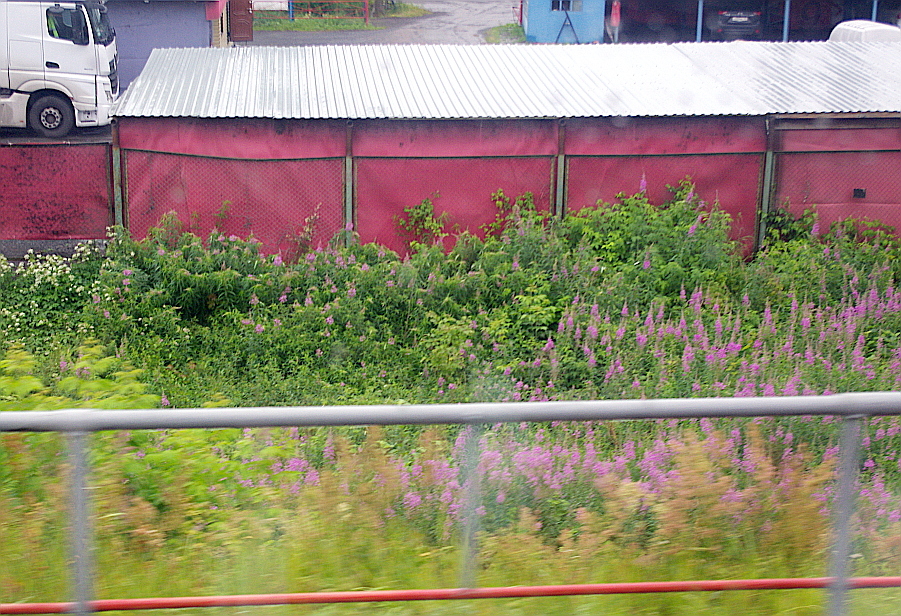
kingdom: Plantae
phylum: Tracheophyta
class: Magnoliopsida
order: Myrtales
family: Onagraceae
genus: Chamaenerion
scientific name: Chamaenerion angustifolium
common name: Fireweed
